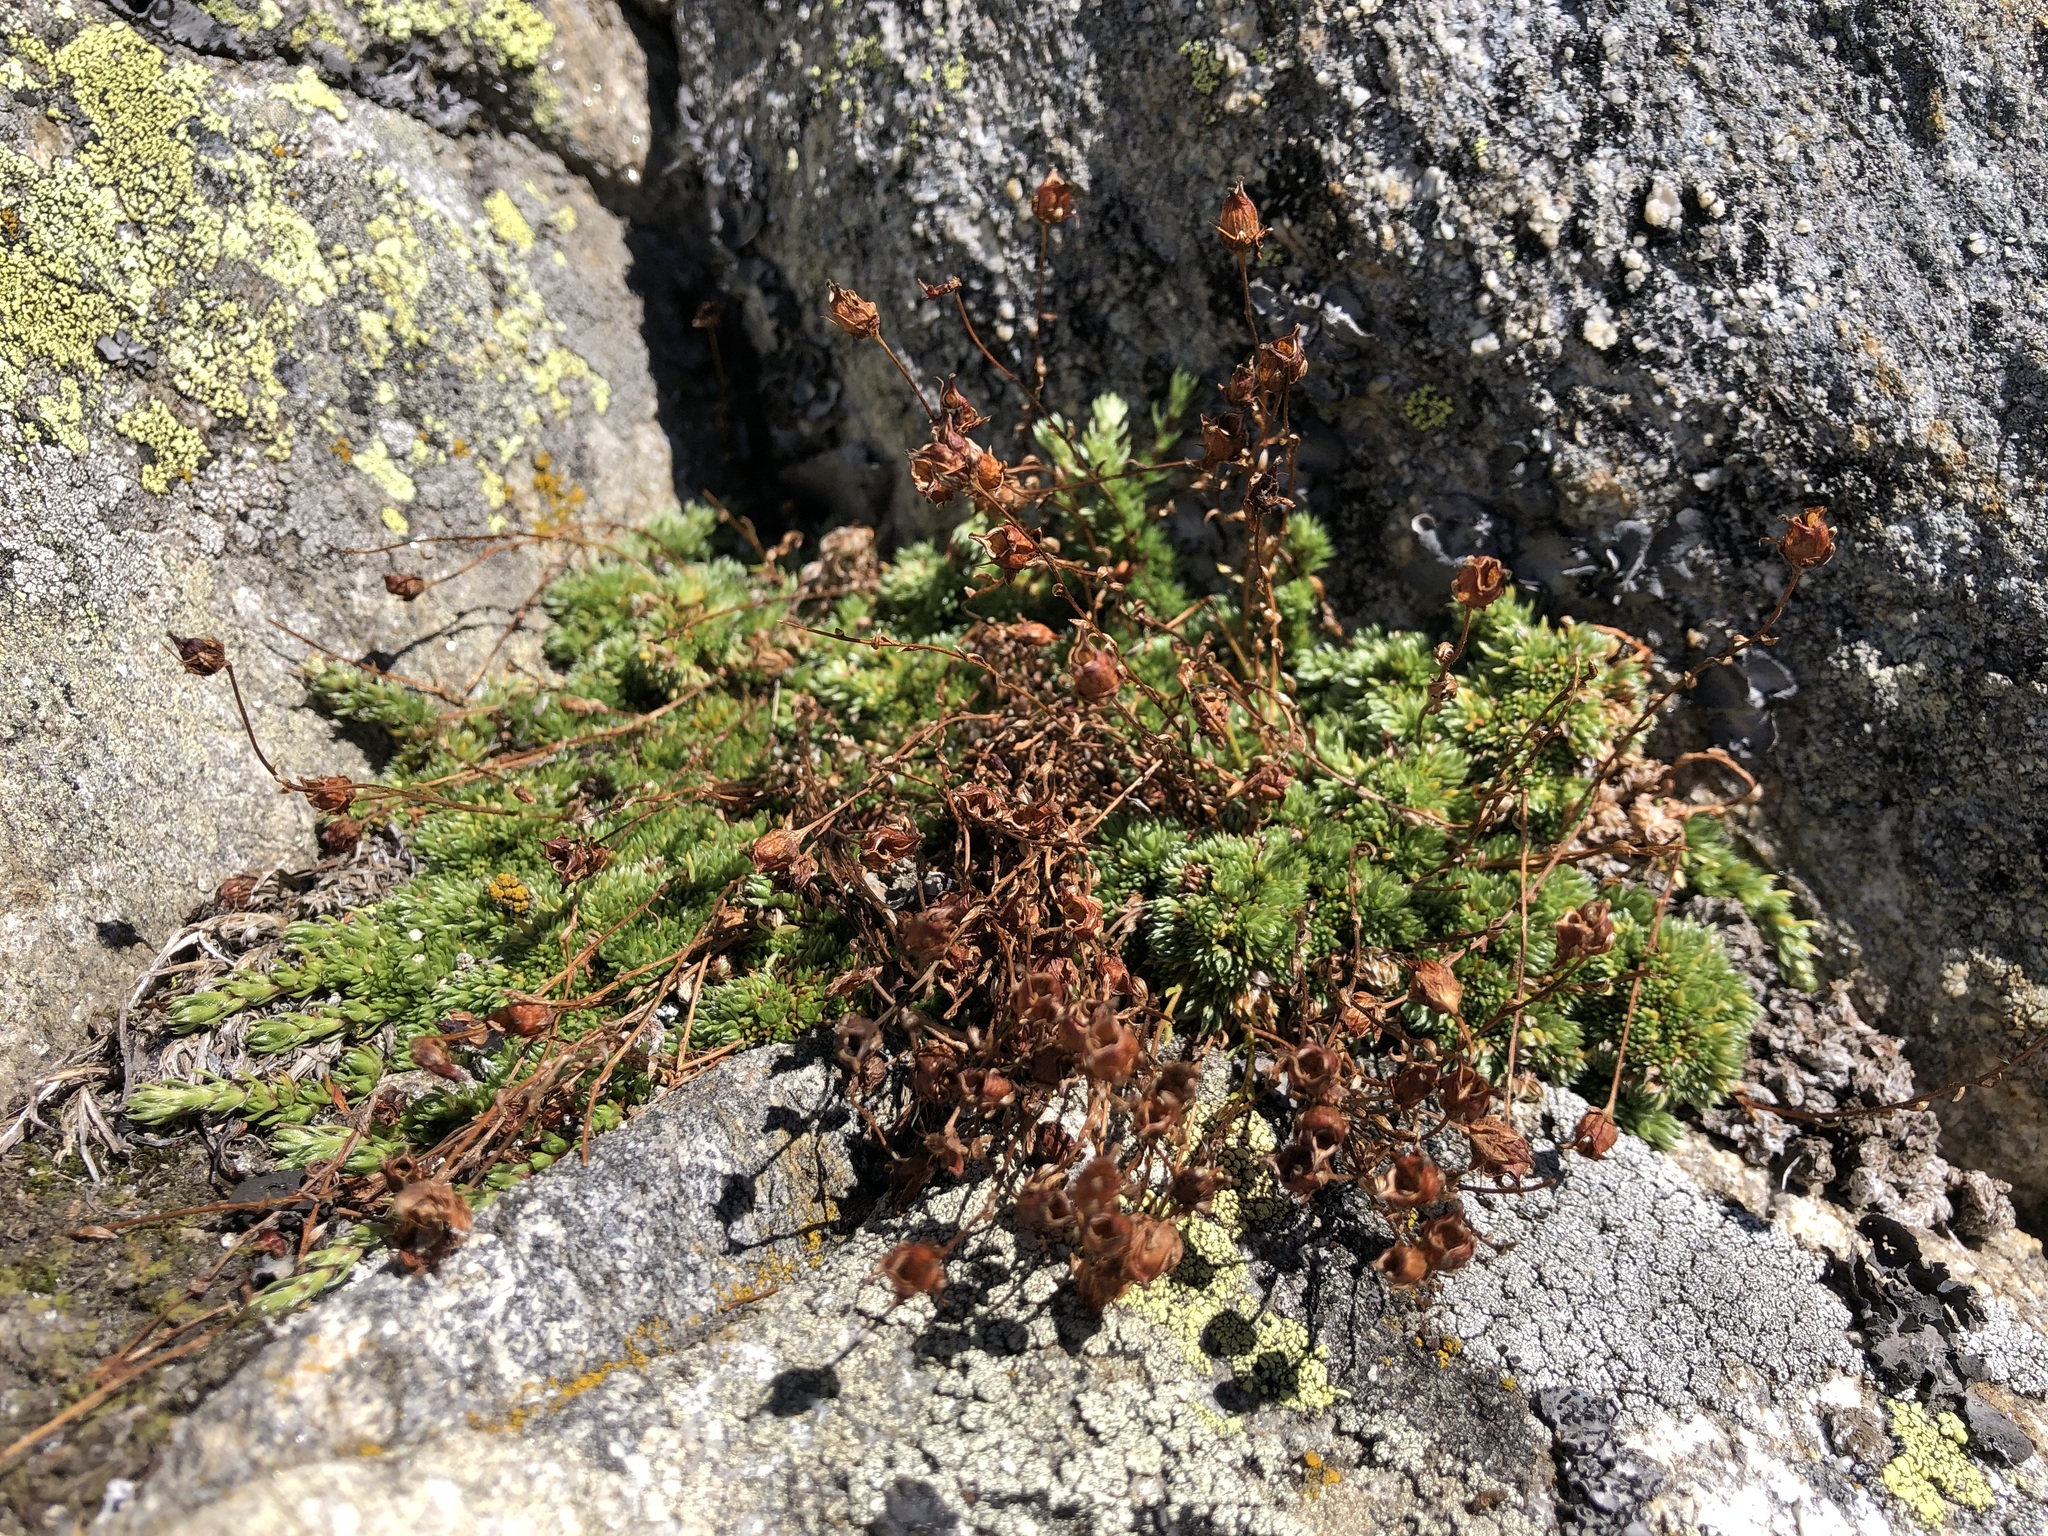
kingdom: Plantae
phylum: Tracheophyta
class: Magnoliopsida
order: Saxifragales
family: Saxifragaceae
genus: Saxifraga
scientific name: Saxifraga bryoides
